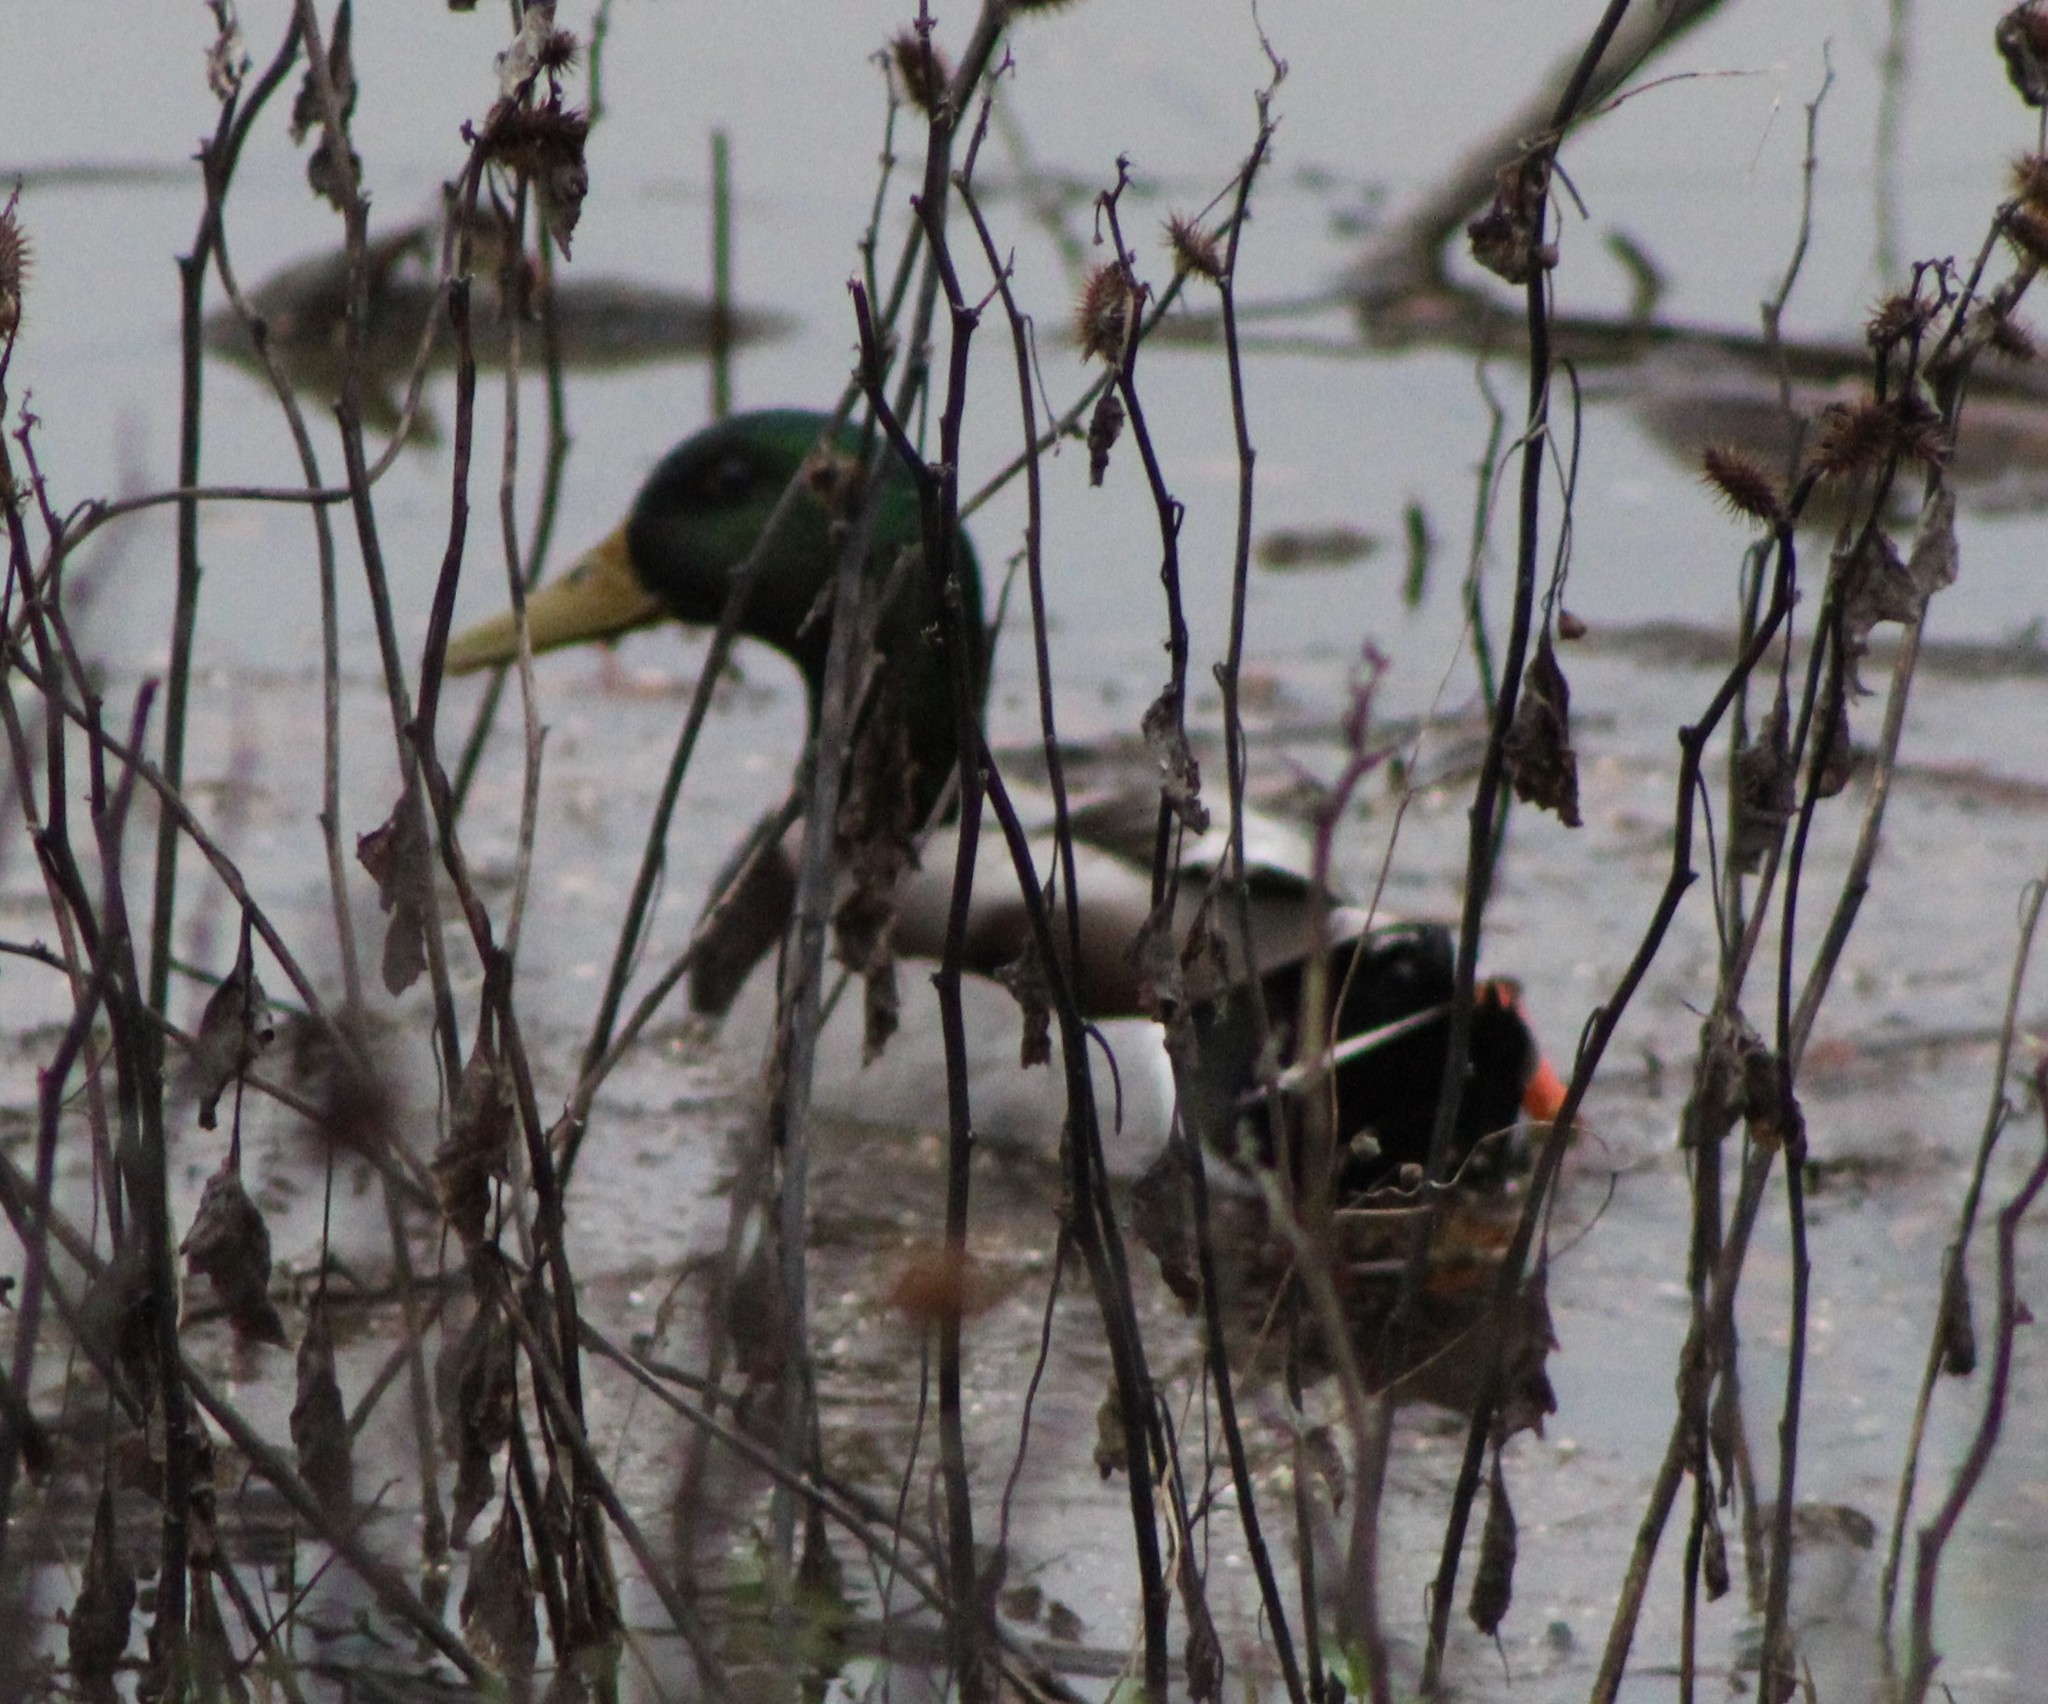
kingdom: Animalia
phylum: Chordata
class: Aves
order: Anseriformes
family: Anatidae
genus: Anas
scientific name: Anas platyrhynchos
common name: Mallard
